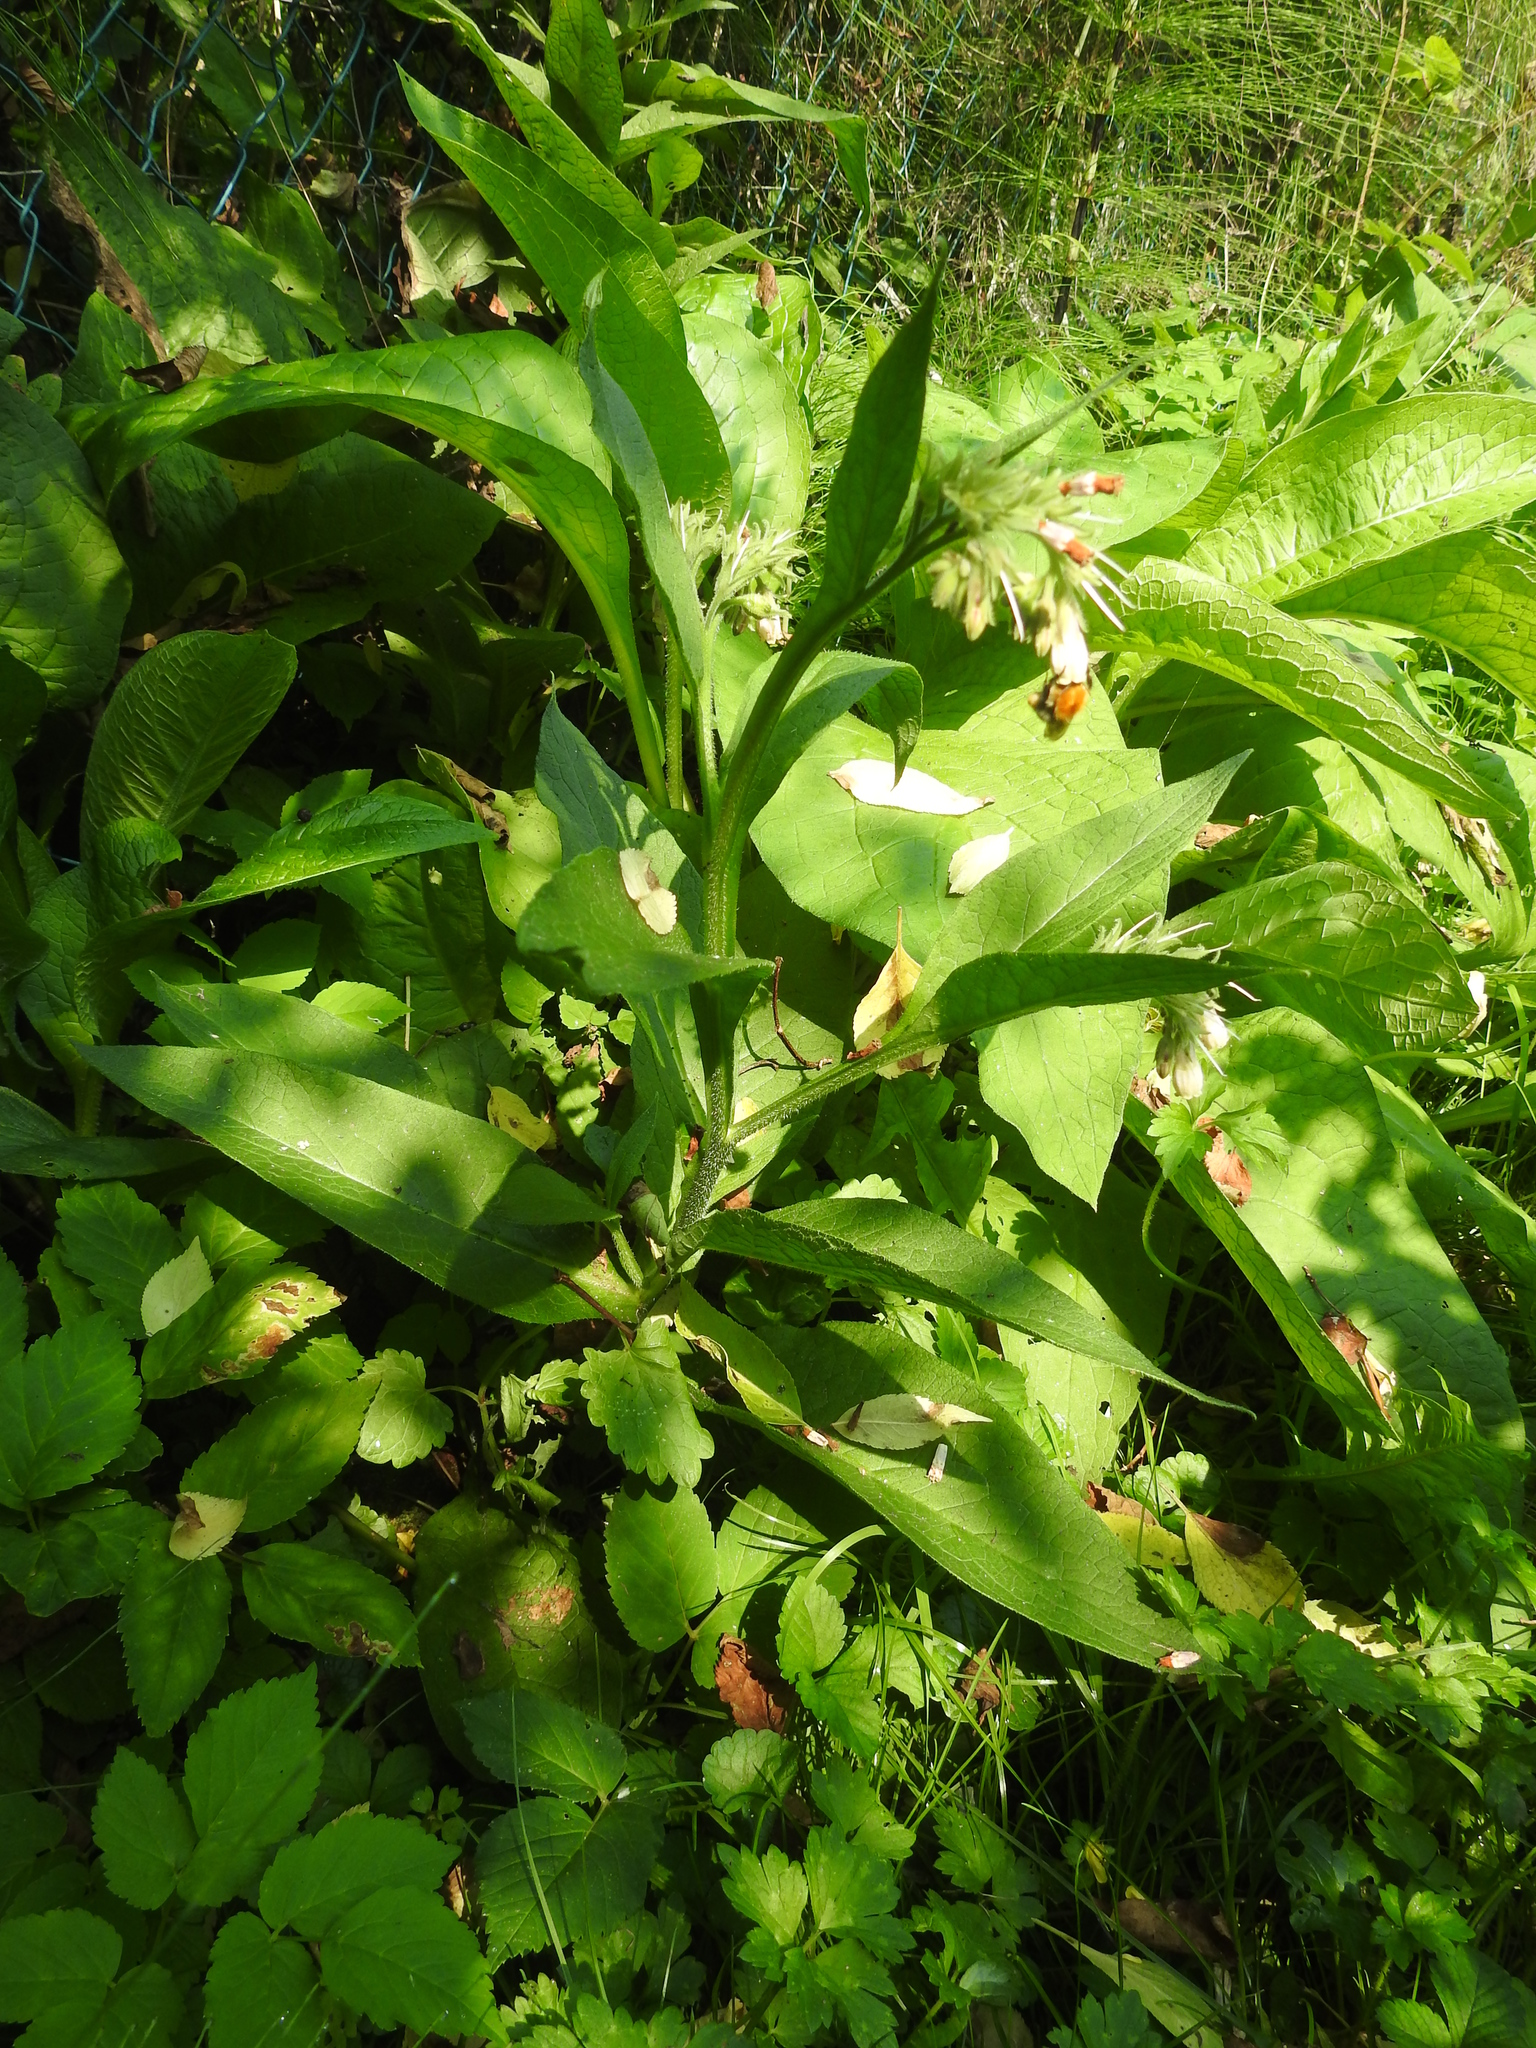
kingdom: Plantae
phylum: Tracheophyta
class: Magnoliopsida
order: Boraginales
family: Boraginaceae
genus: Symphytum
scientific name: Symphytum officinale
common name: Common comfrey
